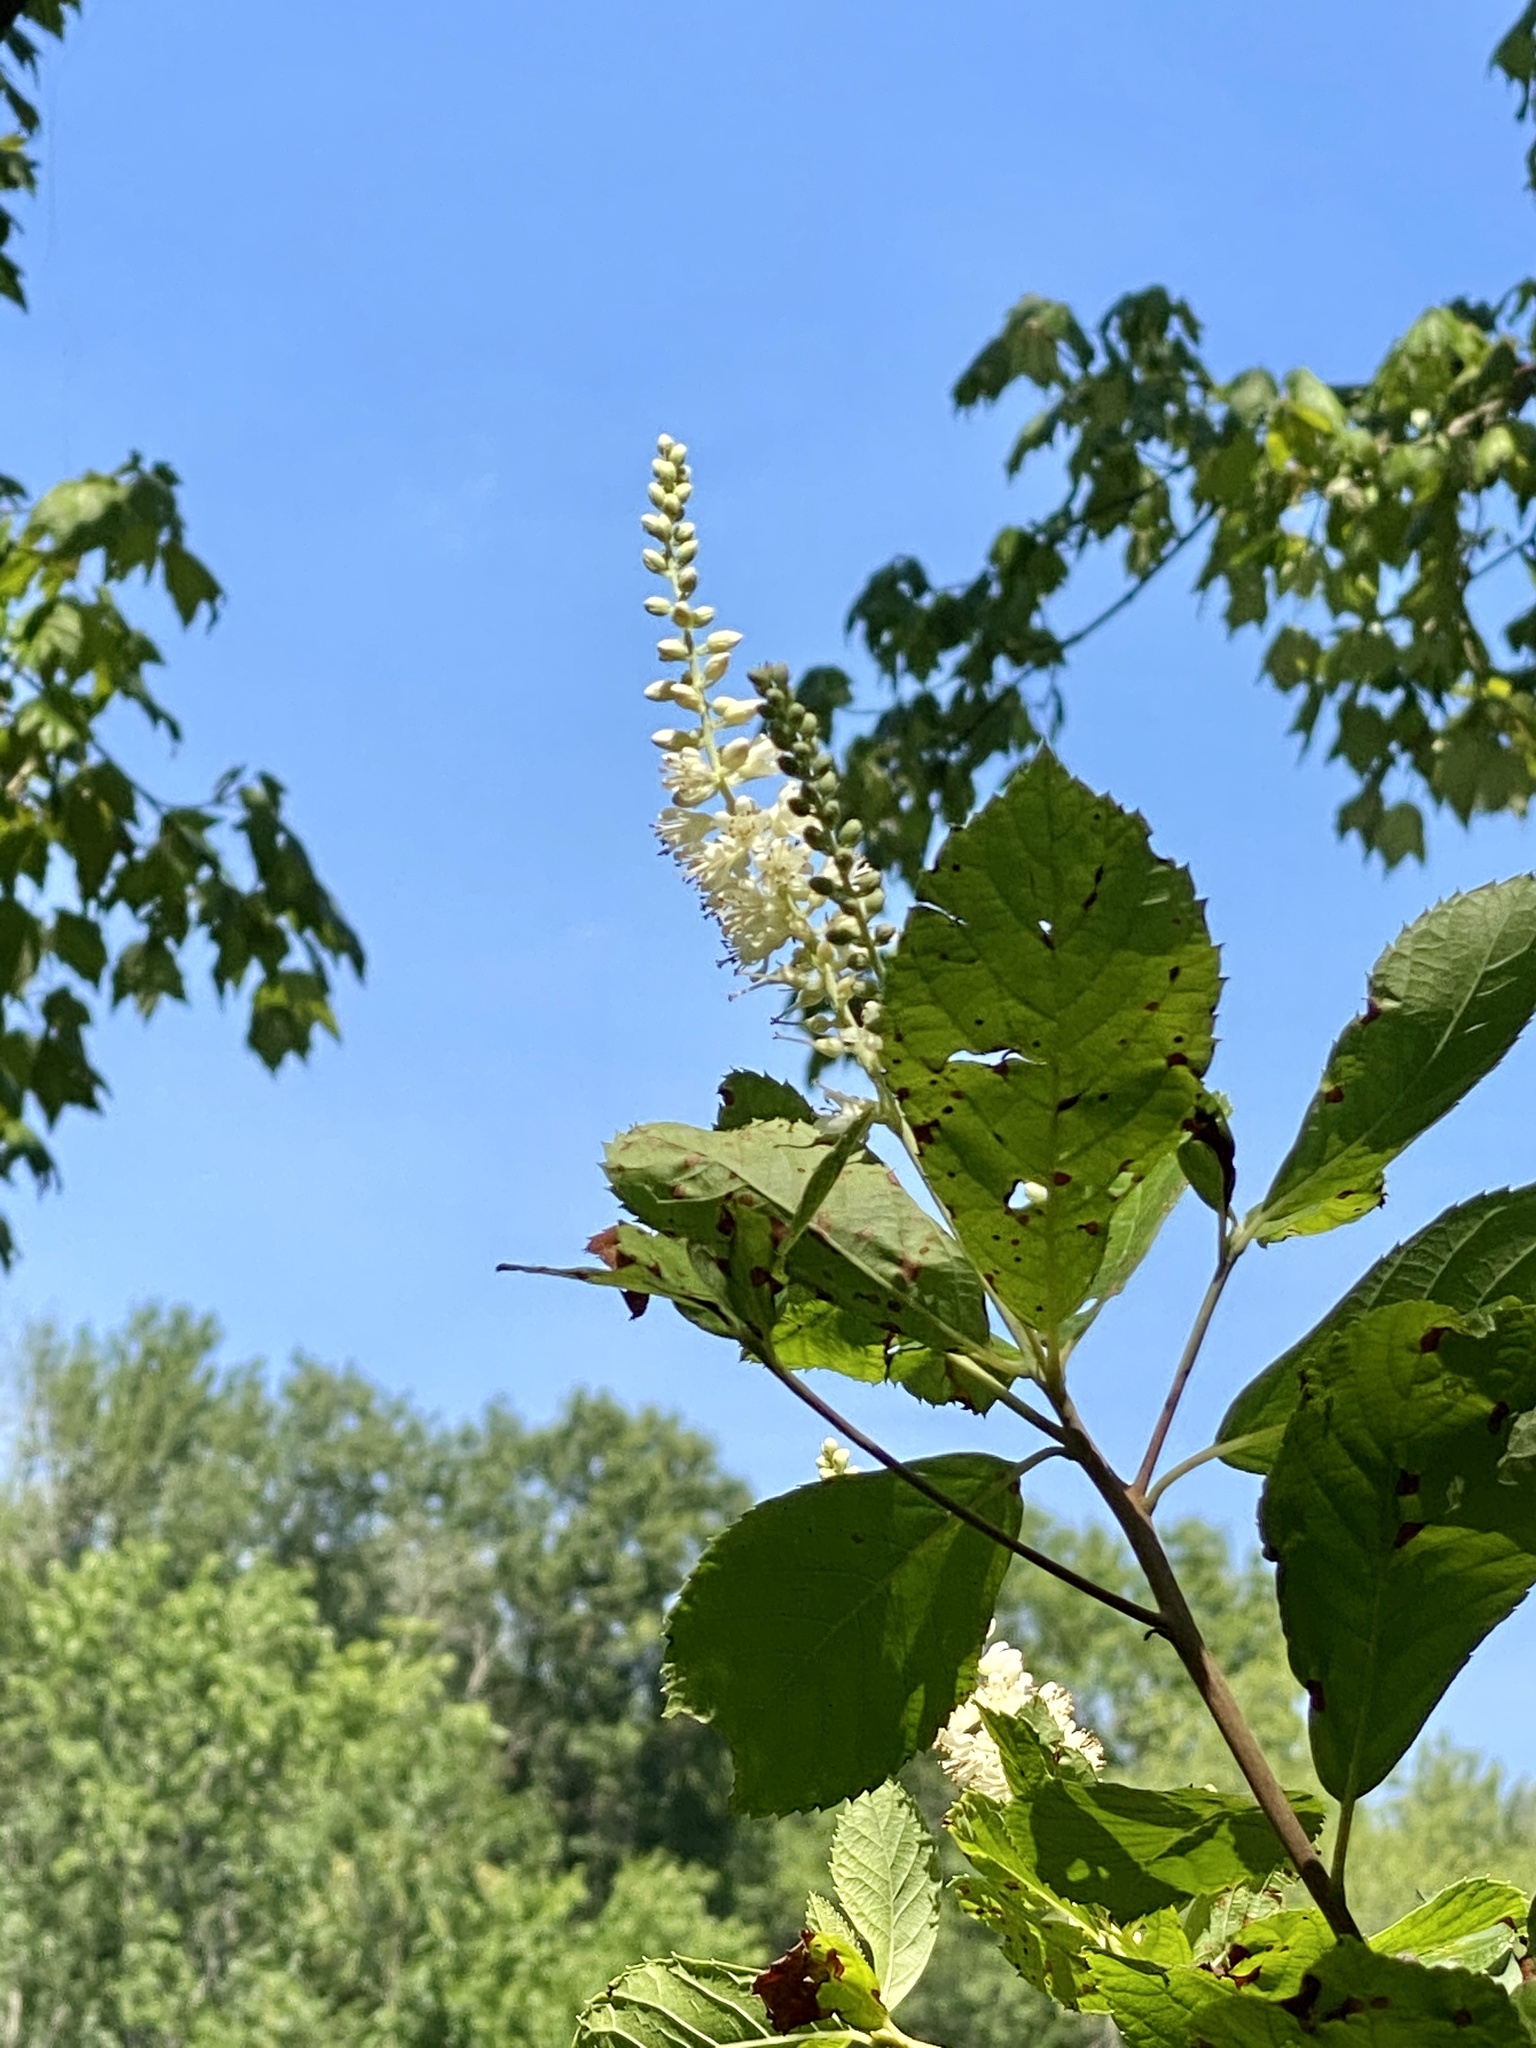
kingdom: Plantae
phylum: Tracheophyta
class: Magnoliopsida
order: Ericales
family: Clethraceae
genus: Clethra
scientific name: Clethra alnifolia
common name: Sweet pepperbush
